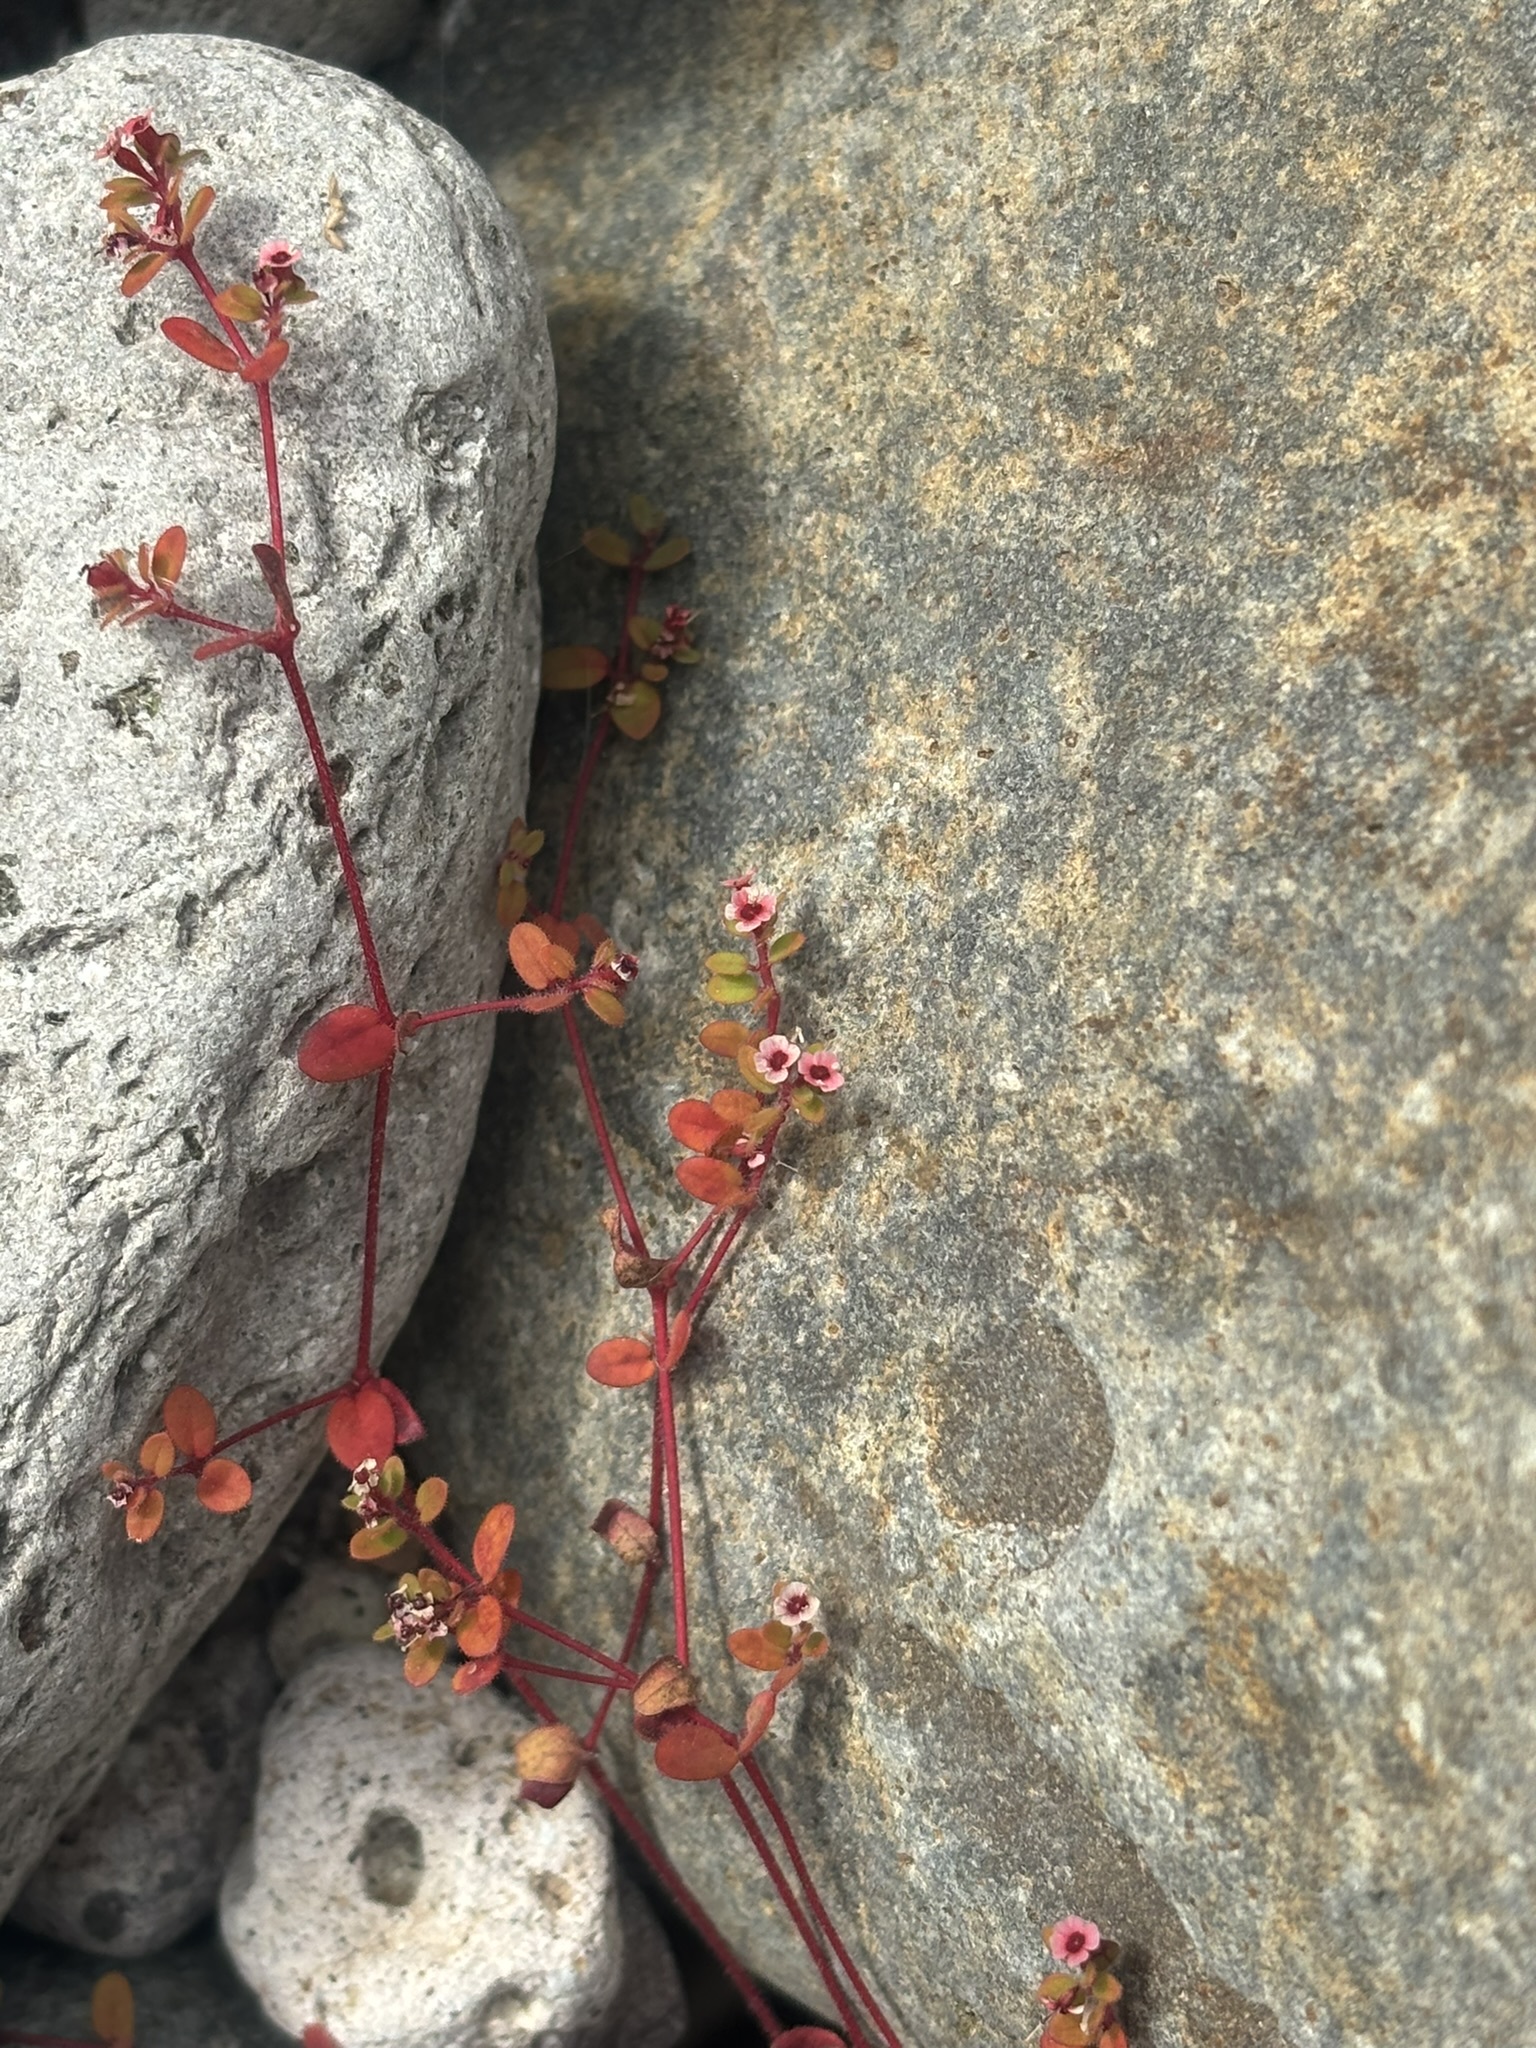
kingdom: Plantae
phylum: Tracheophyta
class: Magnoliopsida
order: Malpighiales
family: Euphorbiaceae
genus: Euphorbia
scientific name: Euphorbia arizonica
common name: Arizona spurge
